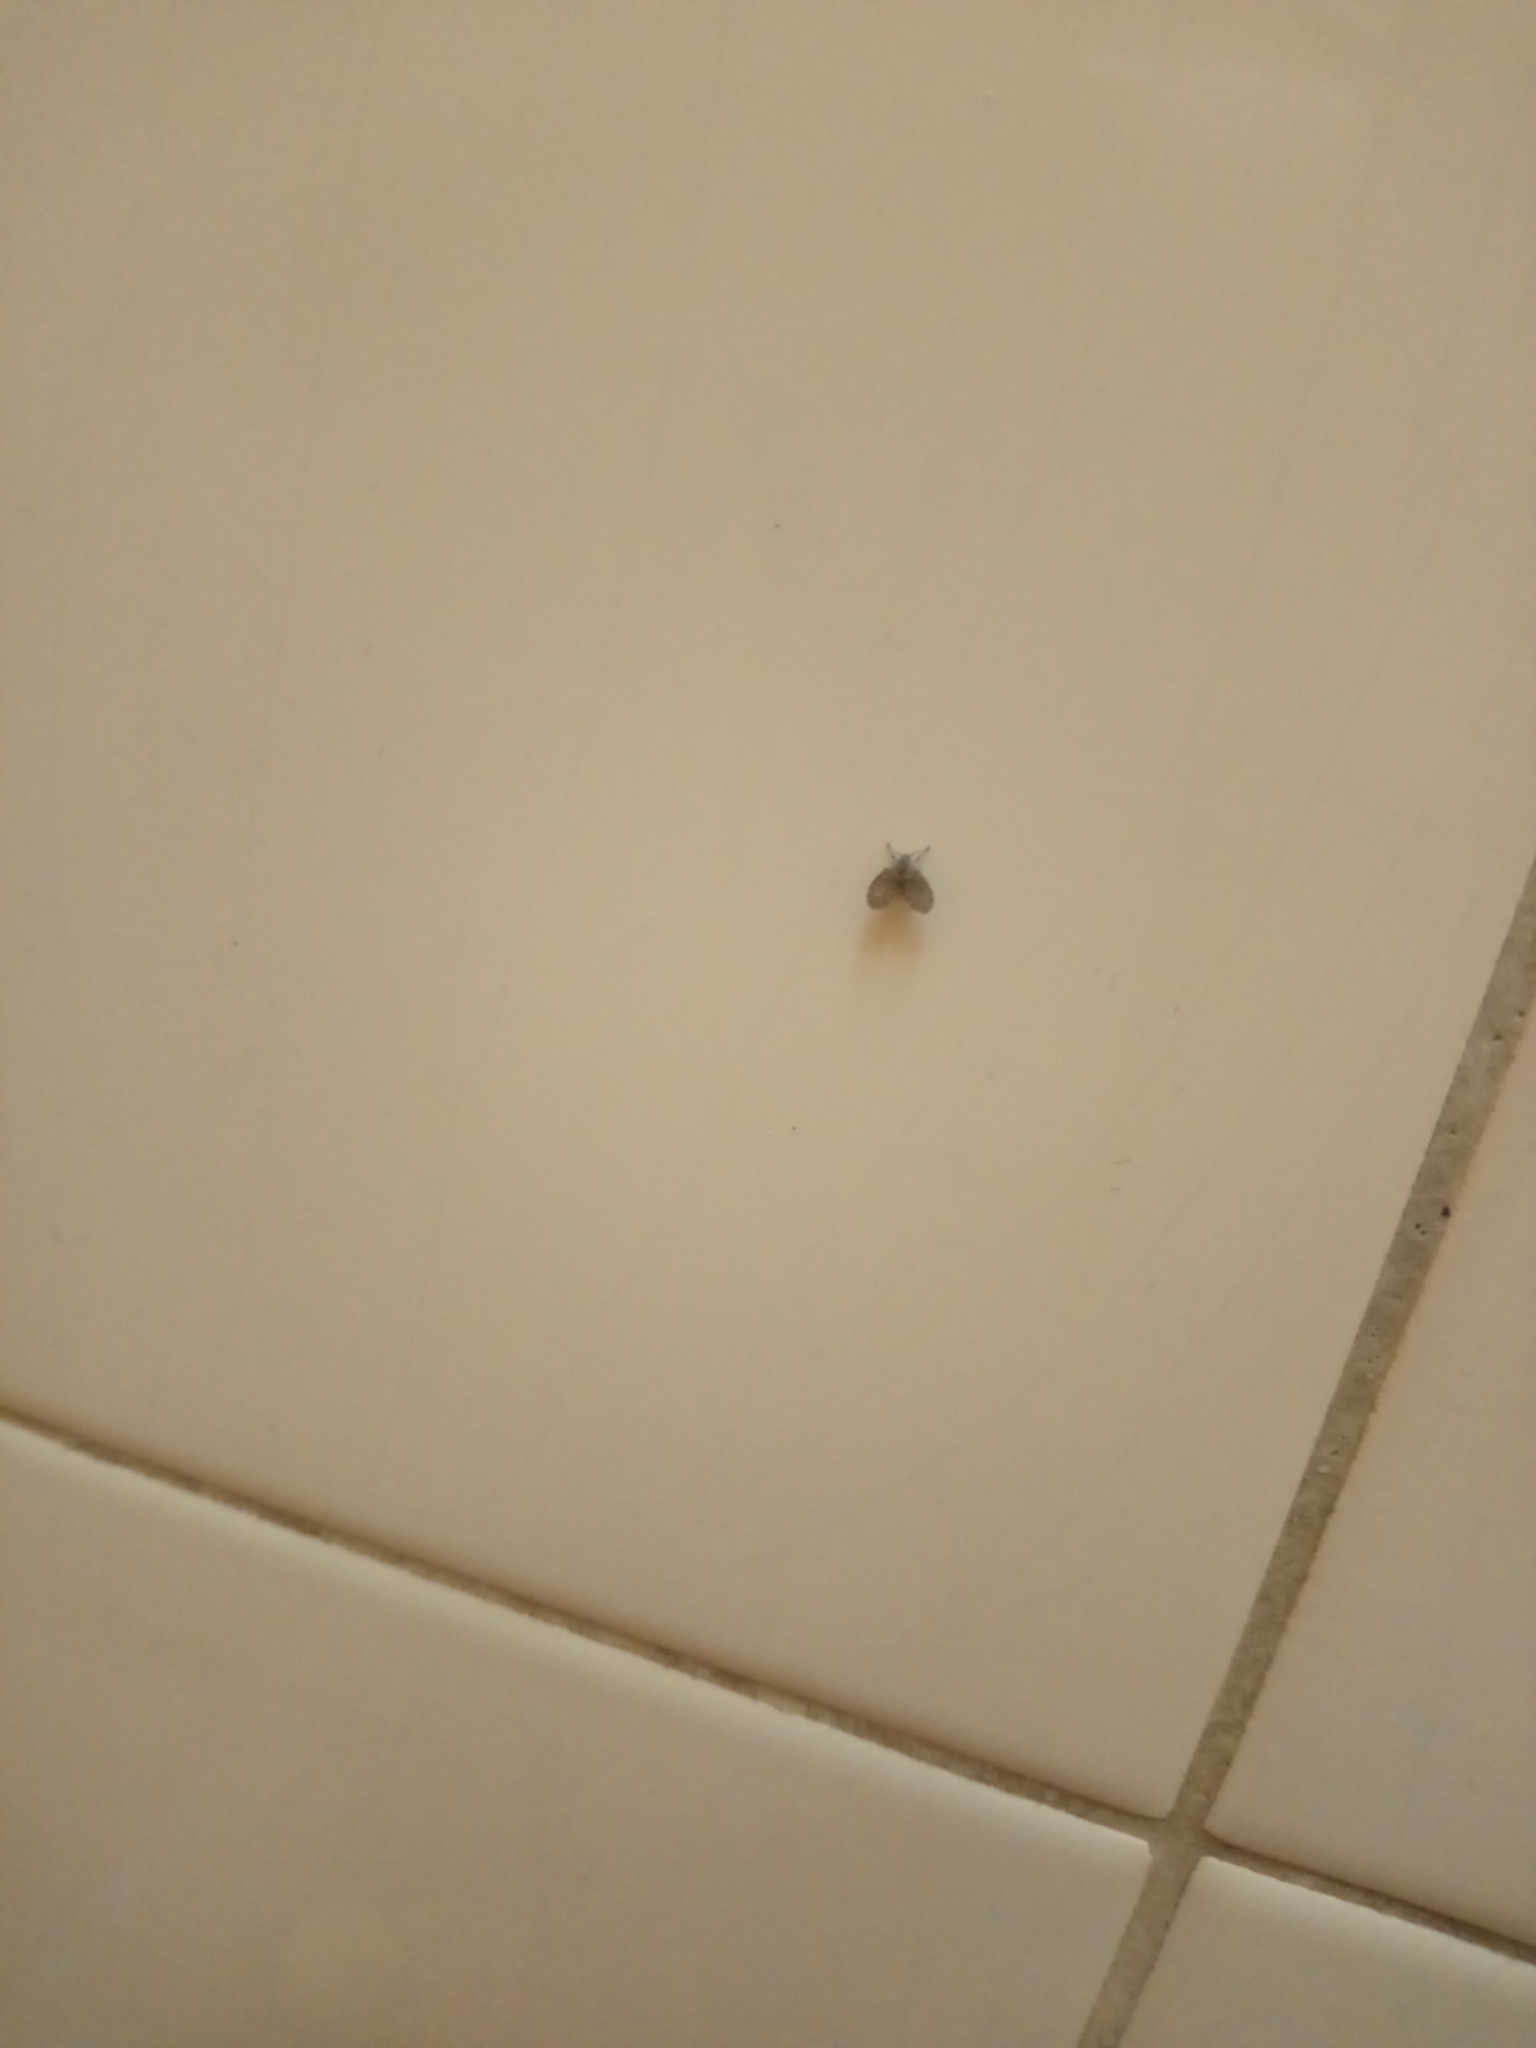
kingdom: Animalia
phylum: Arthropoda
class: Insecta
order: Diptera
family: Psychodidae
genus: Clogmia
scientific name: Clogmia albipunctatus
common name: White-spotted moth fly
